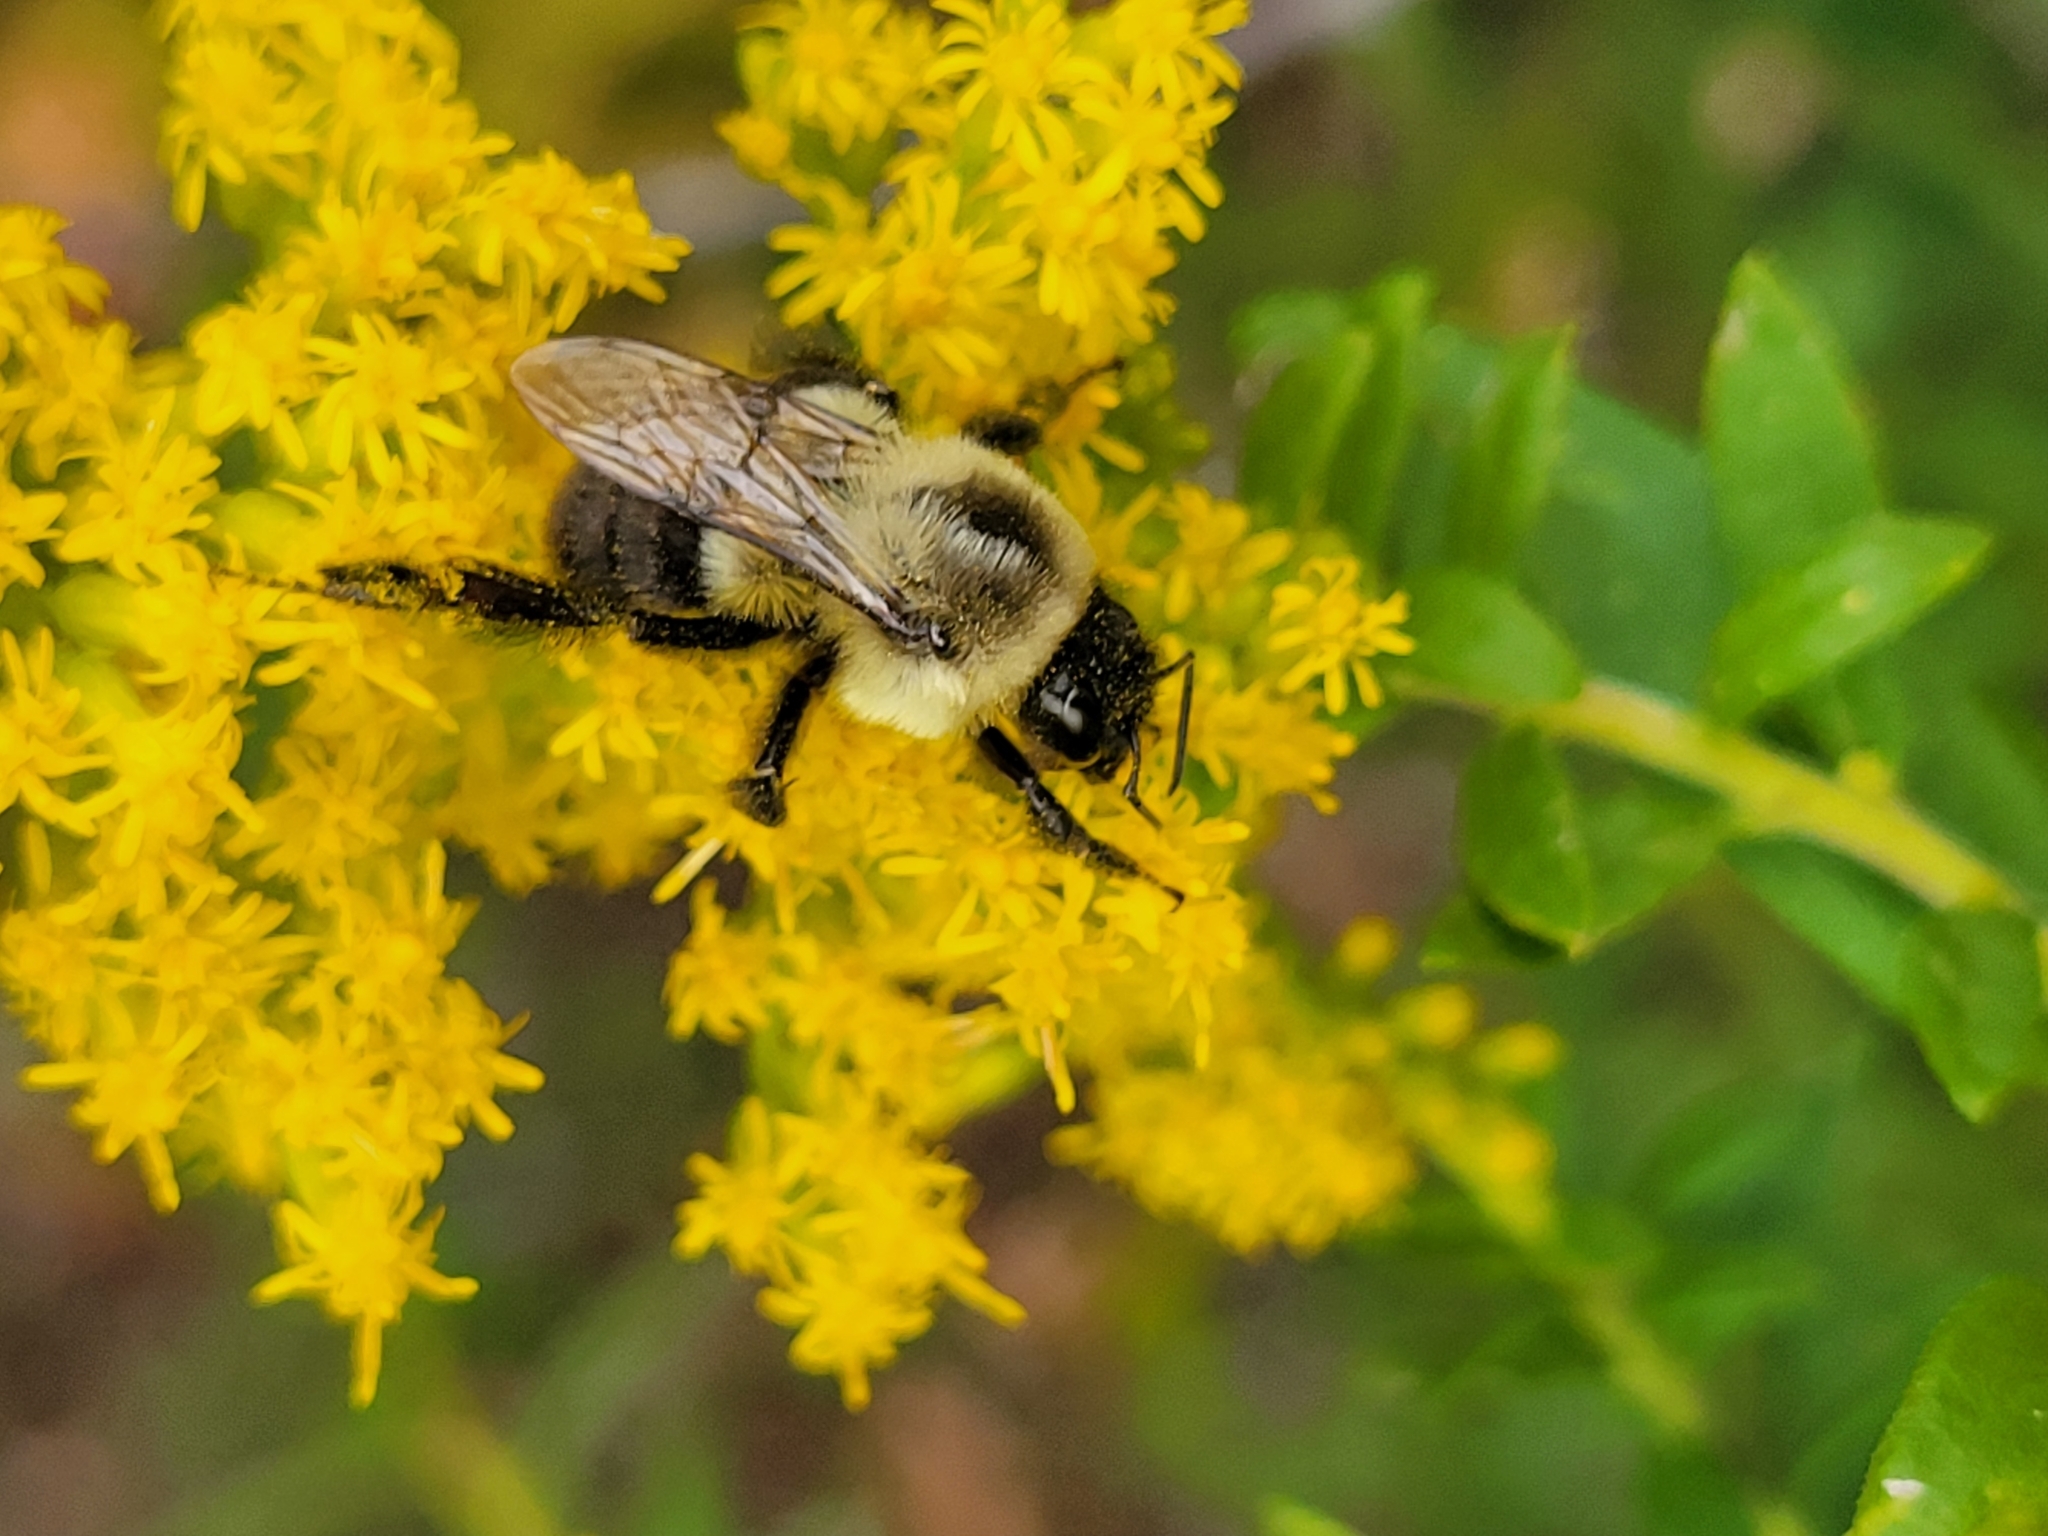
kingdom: Animalia
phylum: Arthropoda
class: Insecta
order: Hymenoptera
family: Apidae
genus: Bombus
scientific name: Bombus impatiens
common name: Common eastern bumble bee
